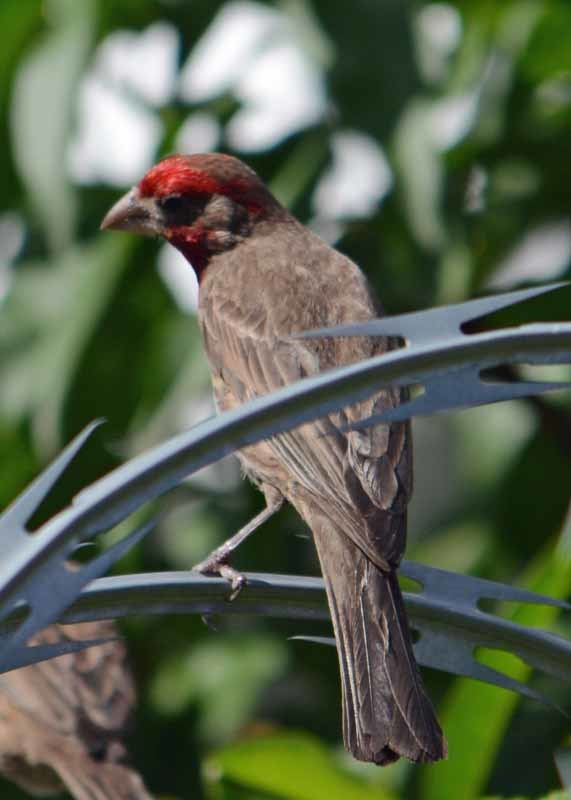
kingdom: Animalia
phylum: Chordata
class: Aves
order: Passeriformes
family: Fringillidae
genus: Haemorhous
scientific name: Haemorhous mexicanus
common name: House finch
